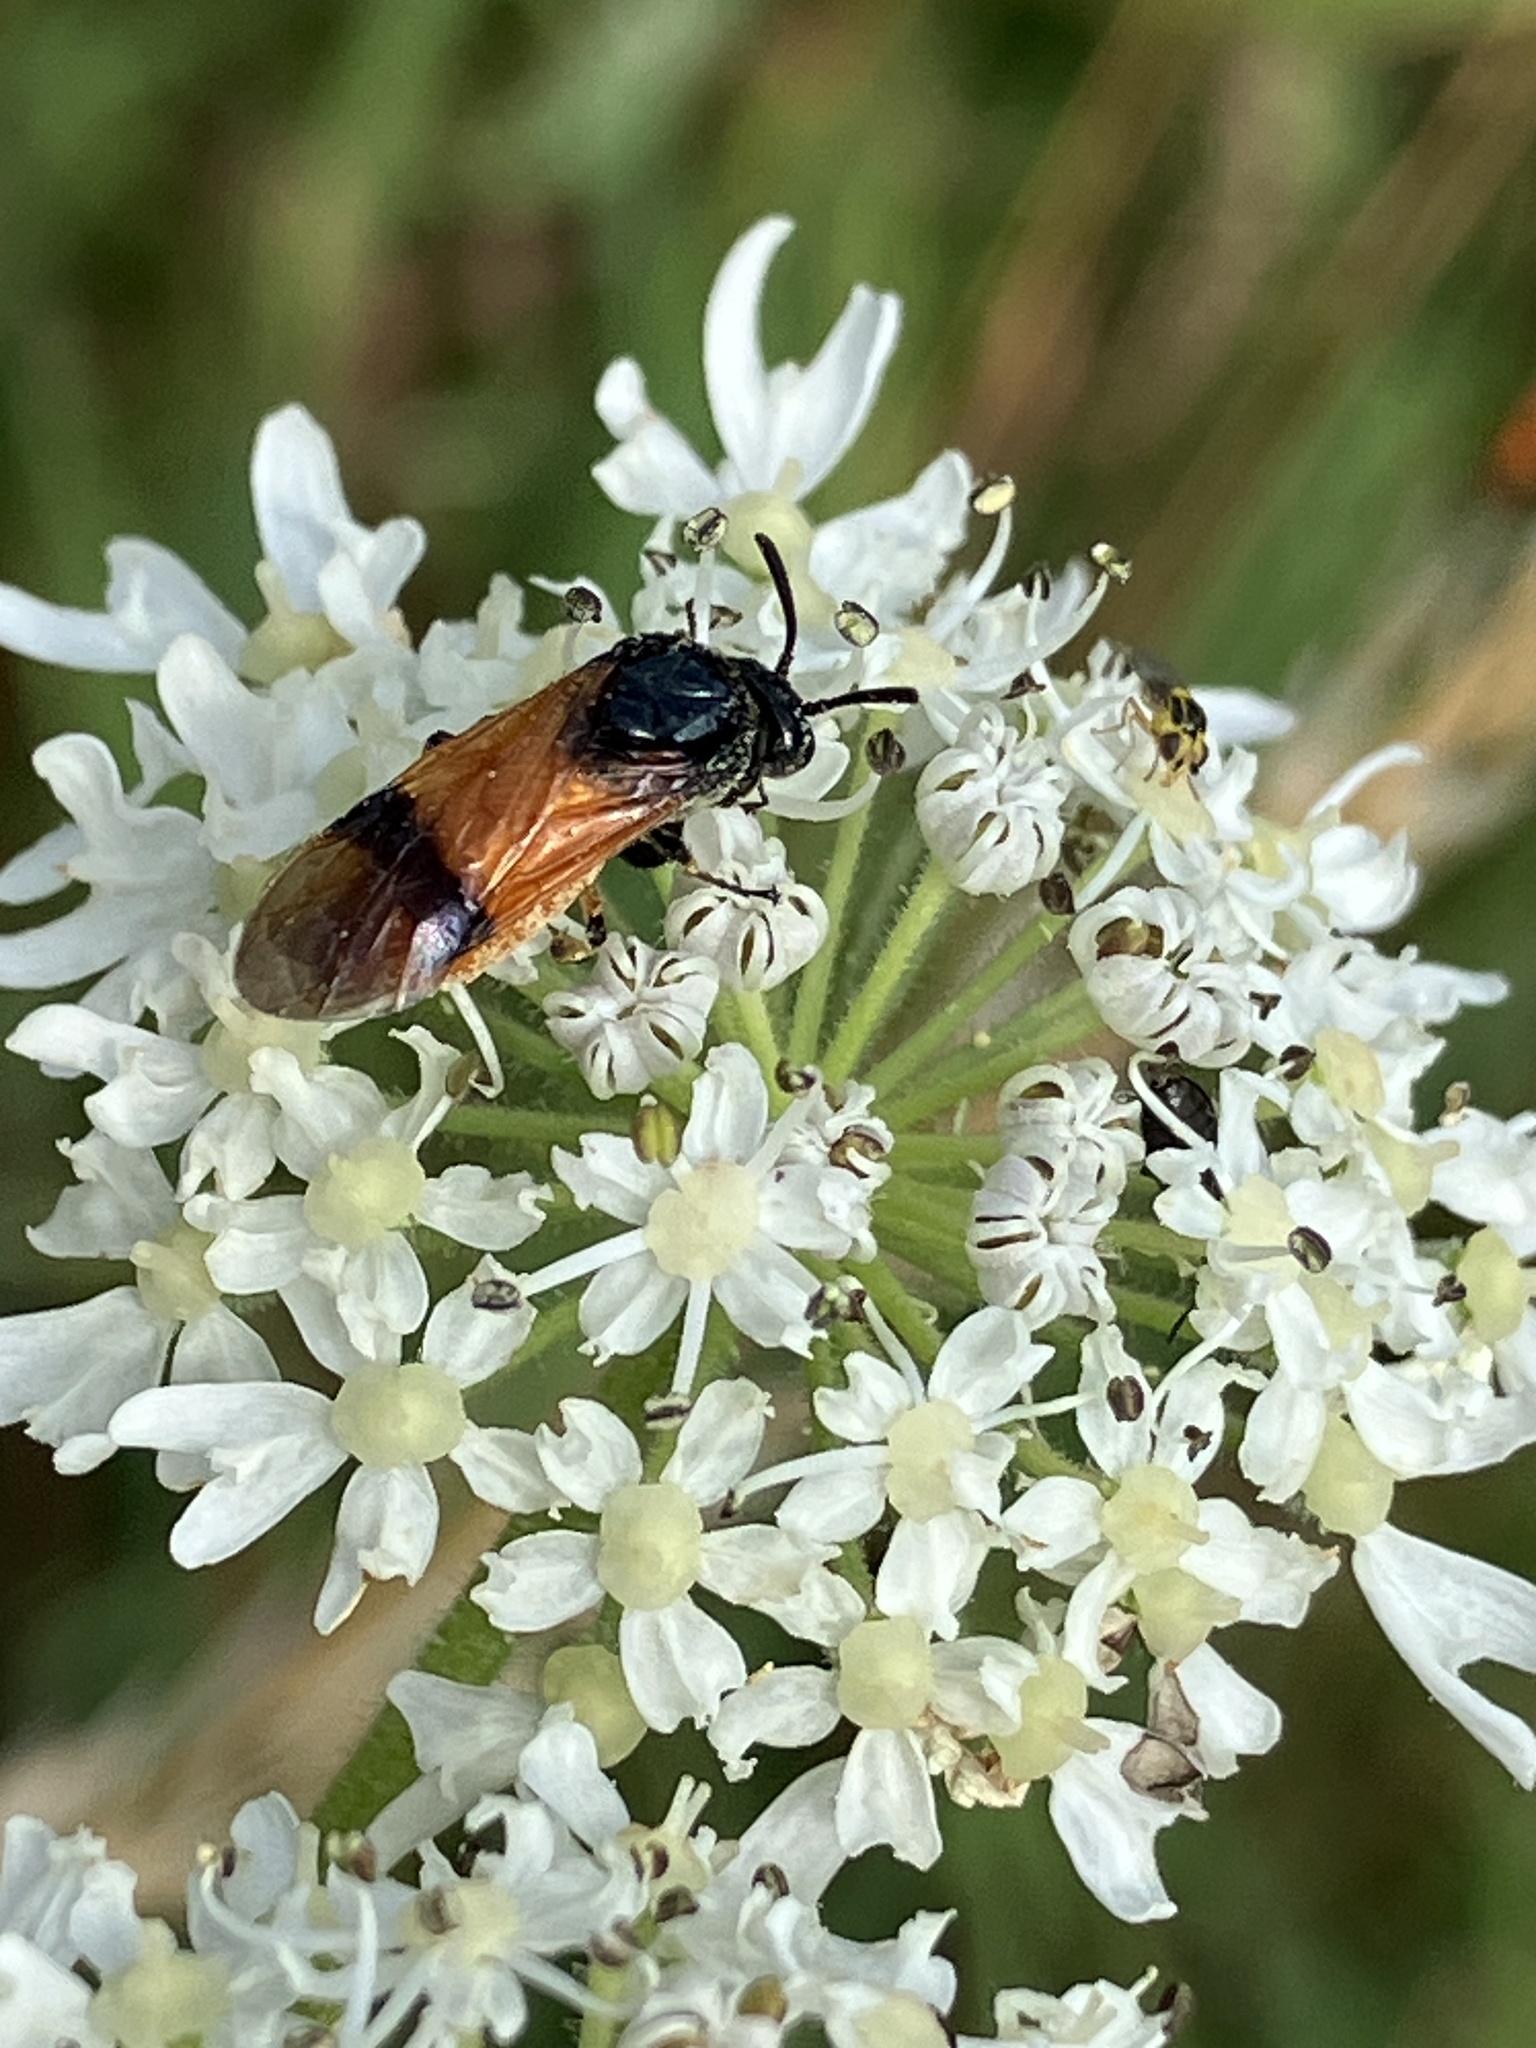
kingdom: Animalia
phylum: Arthropoda
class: Insecta
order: Hymenoptera
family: Argidae
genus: Arge
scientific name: Arge cyanocrocea
